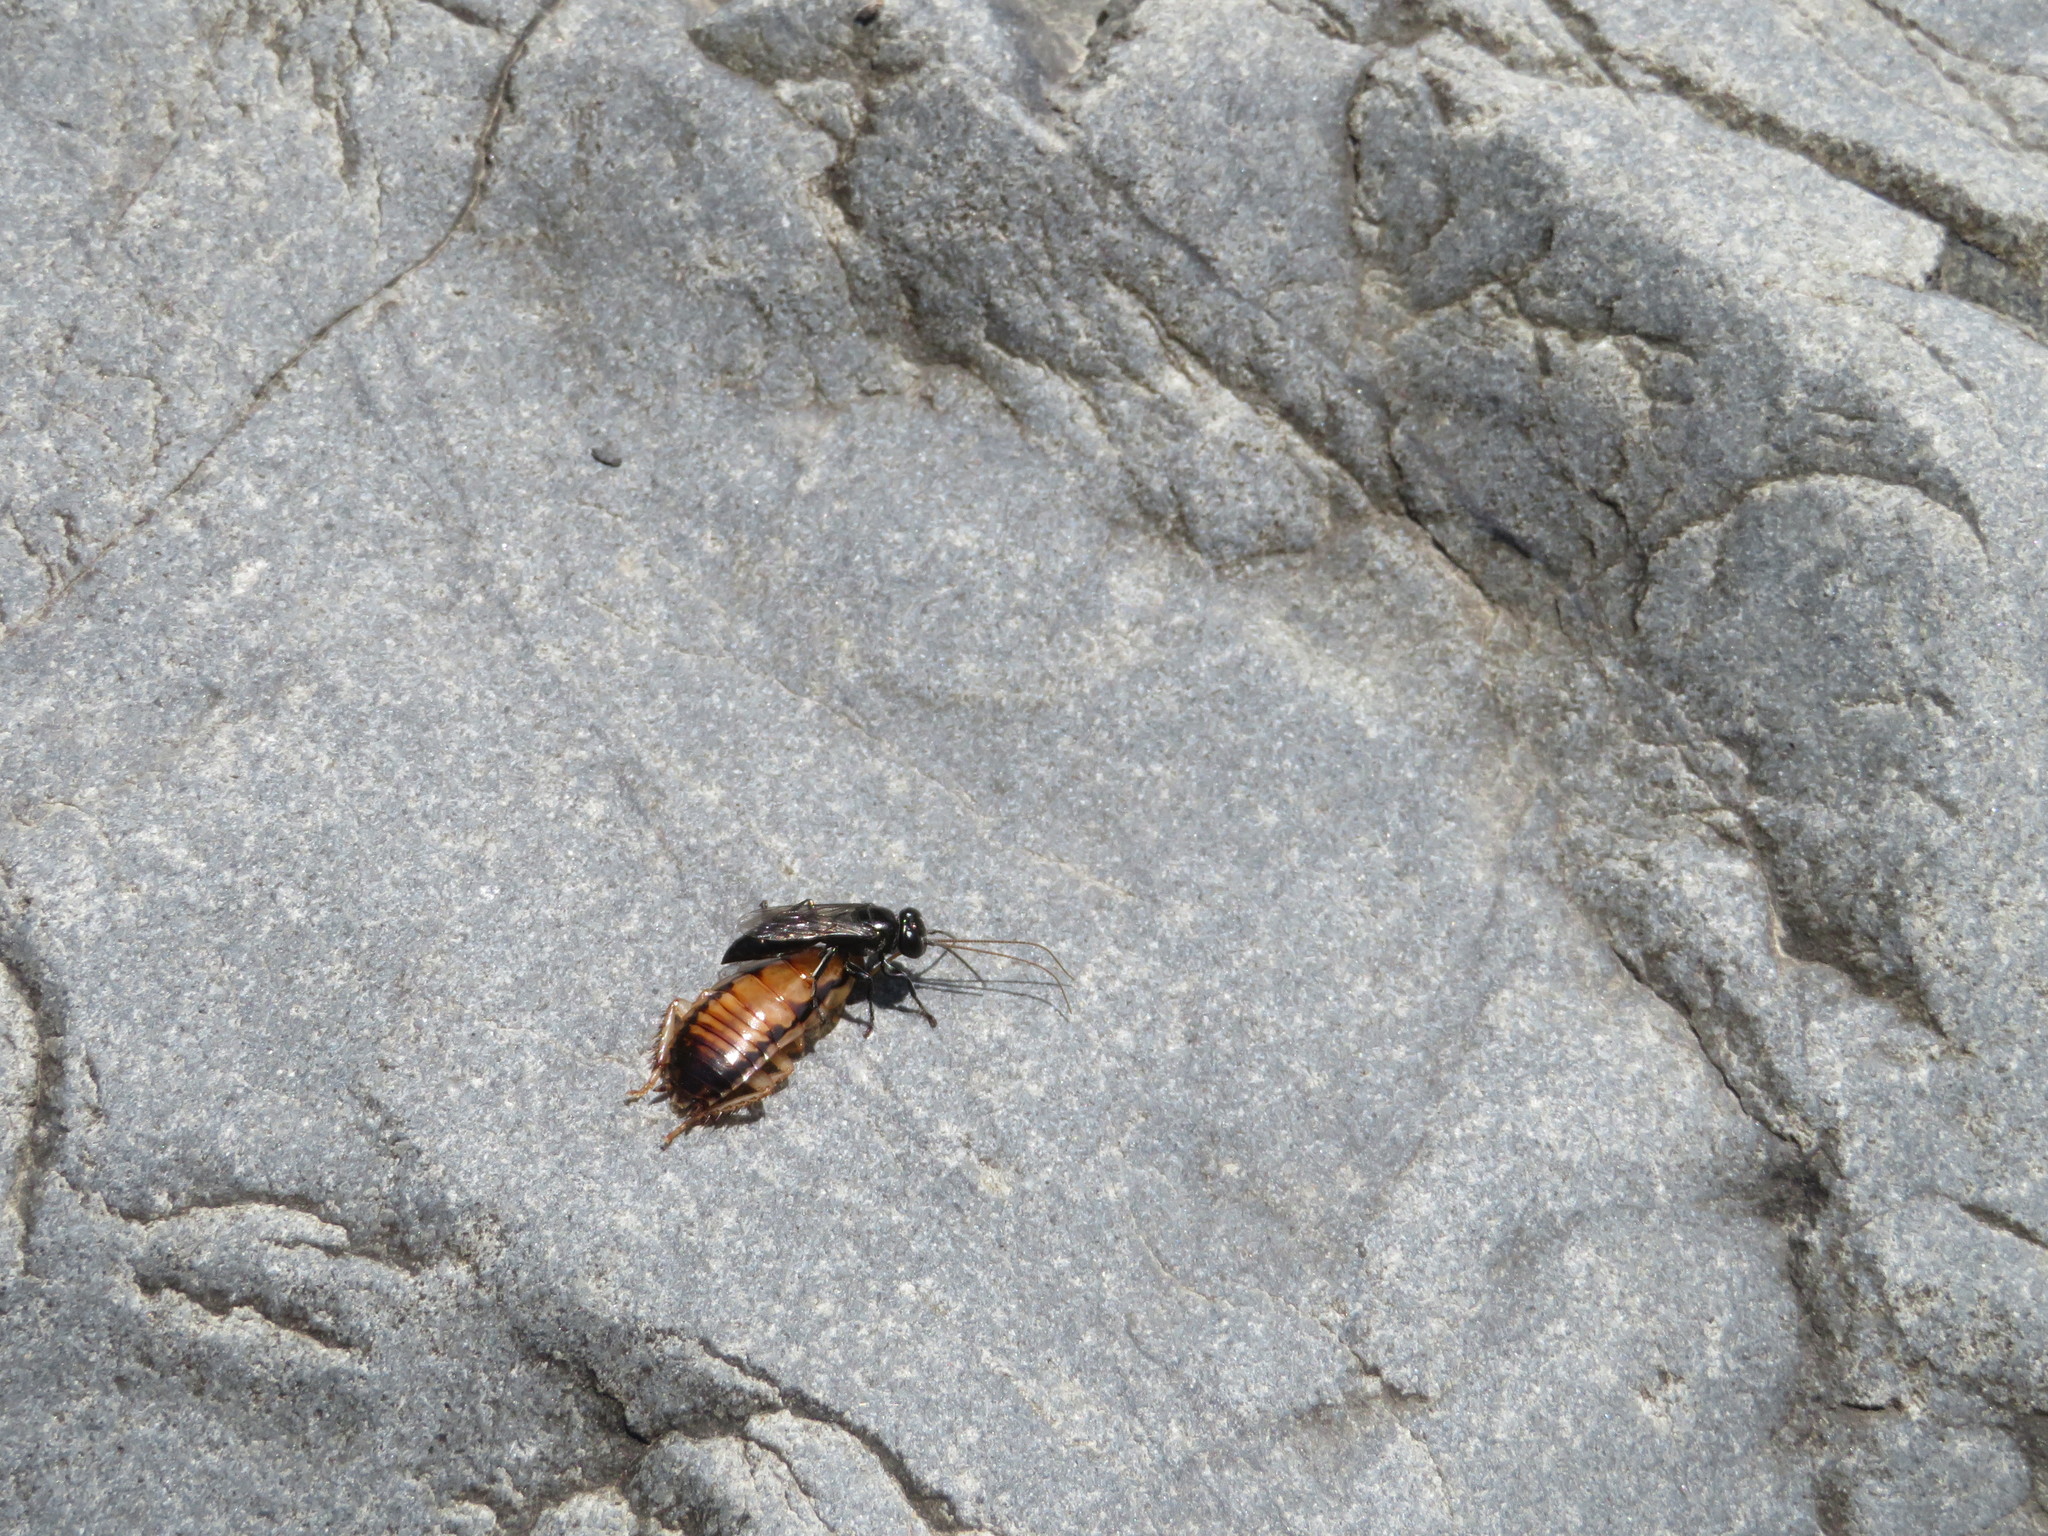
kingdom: Animalia
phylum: Arthropoda
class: Insecta
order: Hymenoptera
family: Crabronidae
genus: Tachysphex
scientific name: Tachysphex nigerrimus
